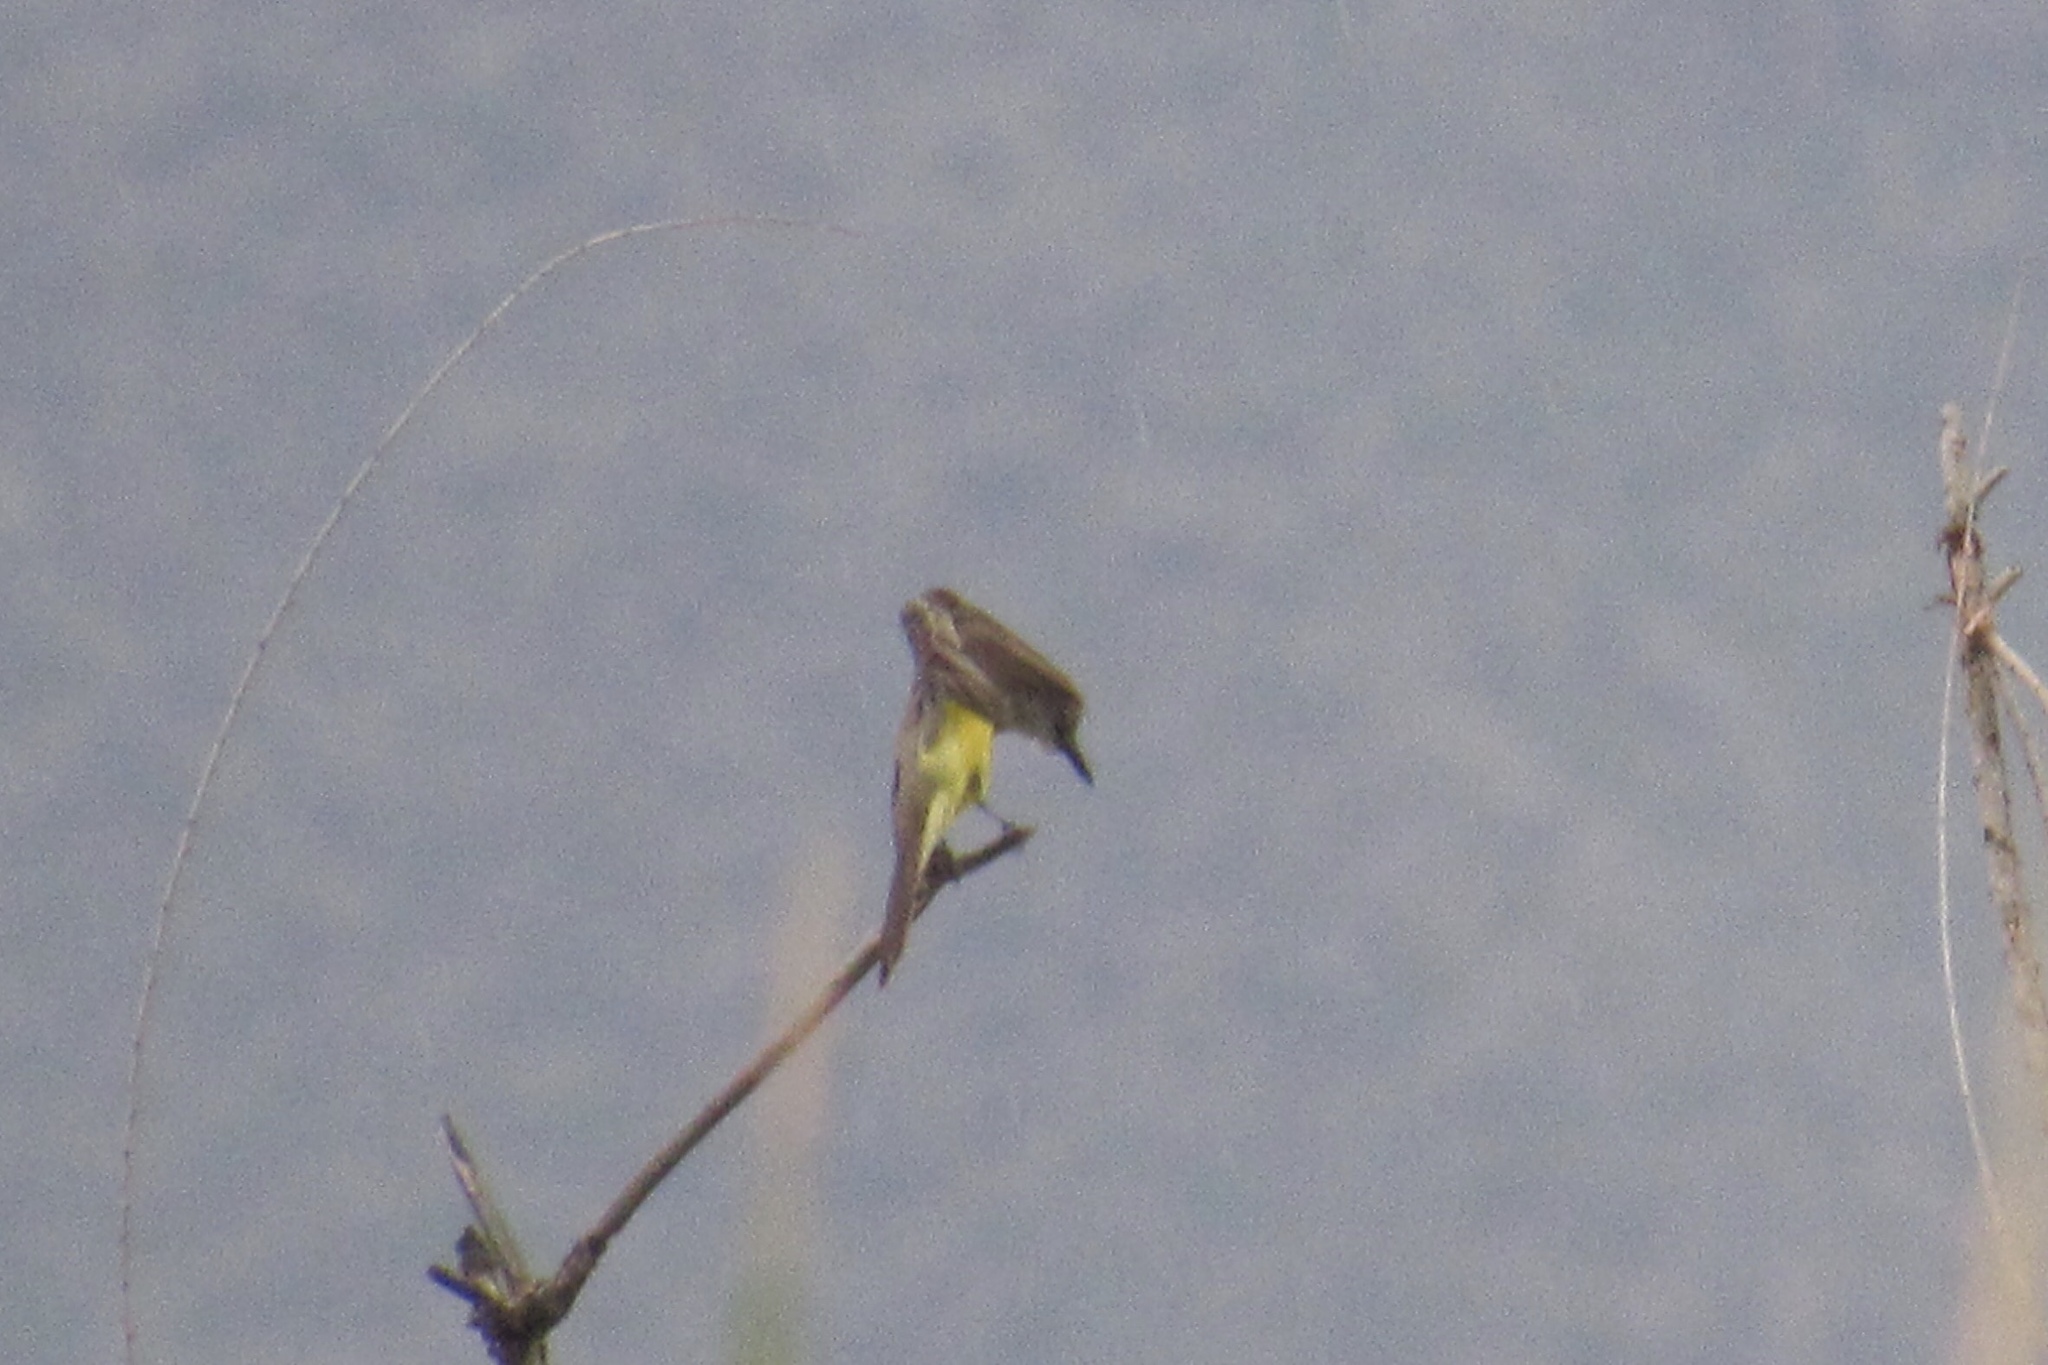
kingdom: Animalia
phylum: Chordata
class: Aves
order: Passeriformes
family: Tyrannidae
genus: Tyrannus
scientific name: Tyrannus melancholicus
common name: Tropical kingbird
